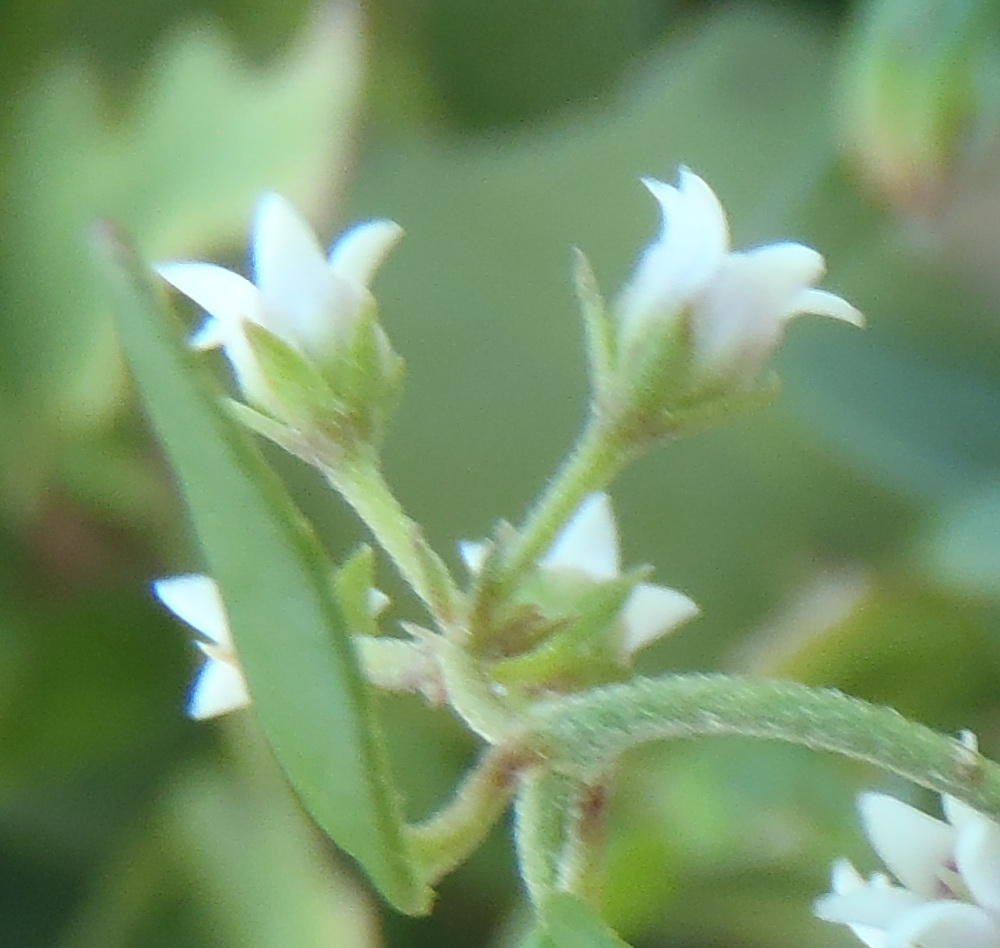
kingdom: Plantae
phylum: Tracheophyta
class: Magnoliopsida
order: Gentianales
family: Apocynaceae
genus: Astephanus
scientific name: Astephanus triflorus
